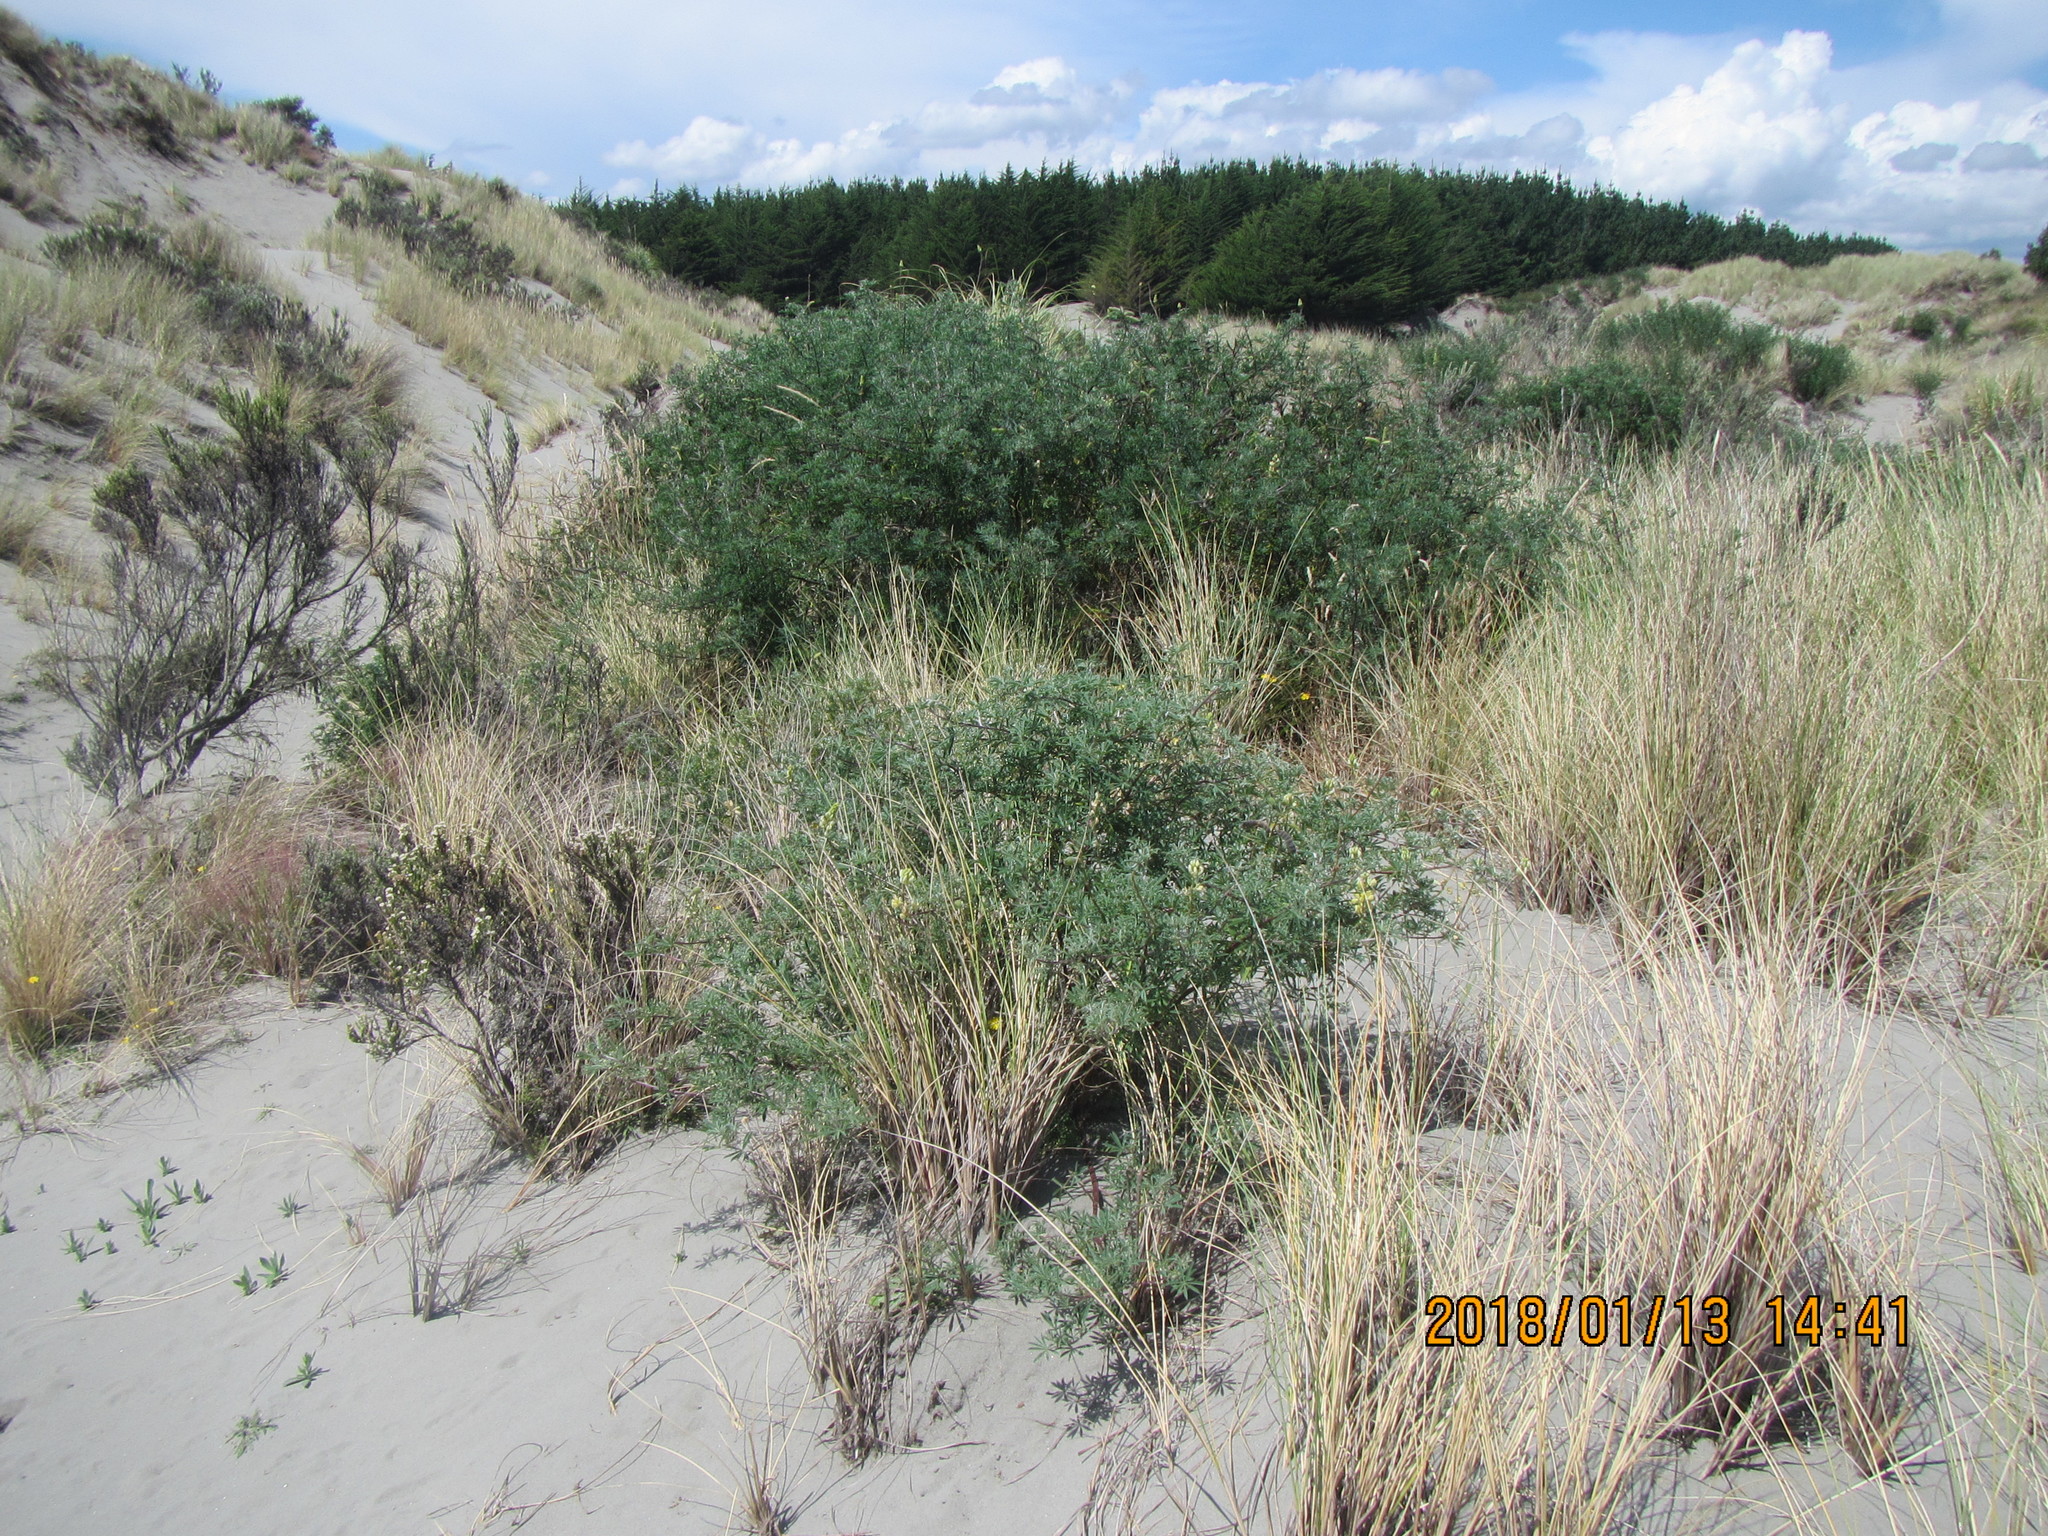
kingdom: Plantae
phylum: Tracheophyta
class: Magnoliopsida
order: Fabales
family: Fabaceae
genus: Lupinus
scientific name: Lupinus arboreus
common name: Yellow bush lupine
